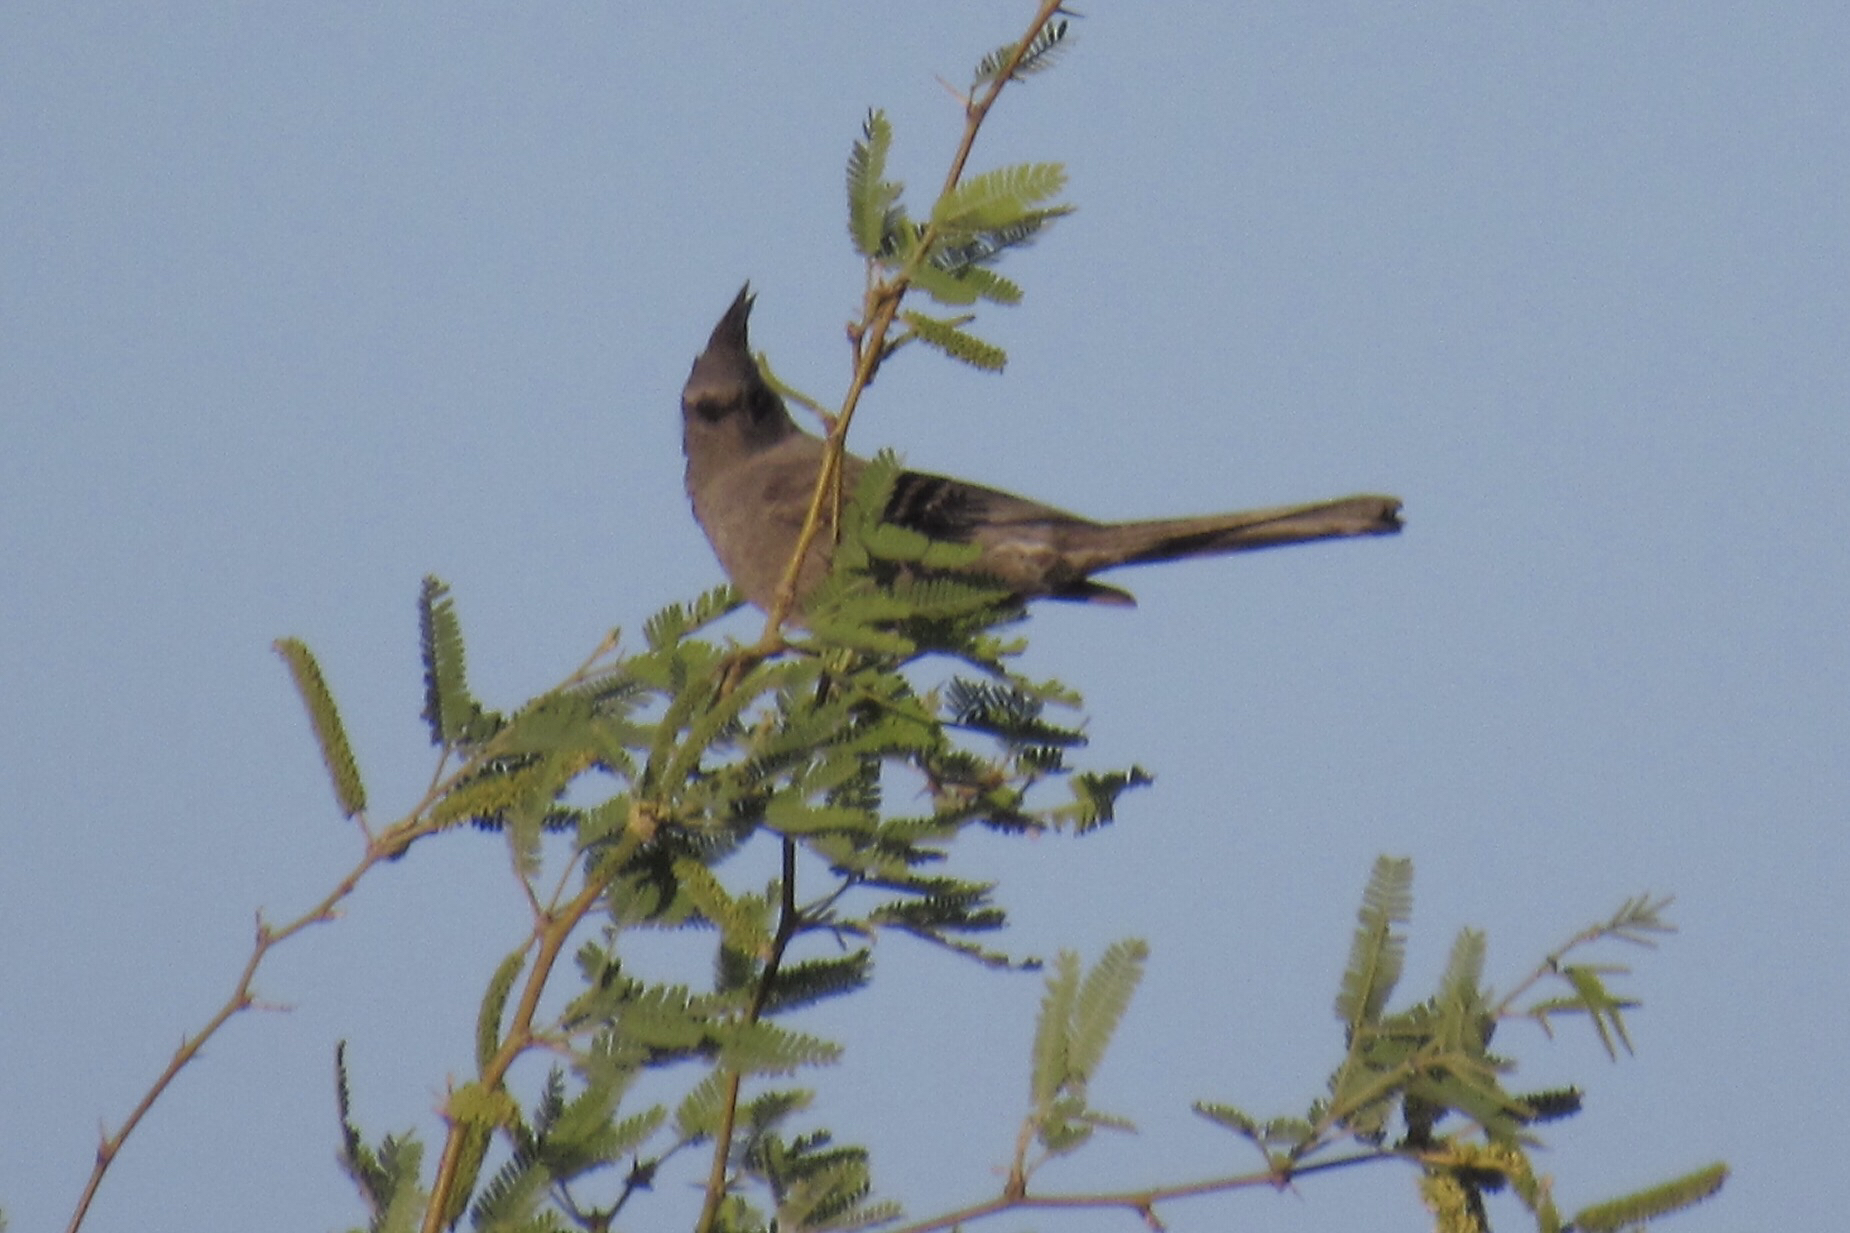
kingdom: Animalia
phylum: Chordata
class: Aves
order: Passeriformes
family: Ptilogonatidae
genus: Phainopepla
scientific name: Phainopepla nitens
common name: Phainopepla
